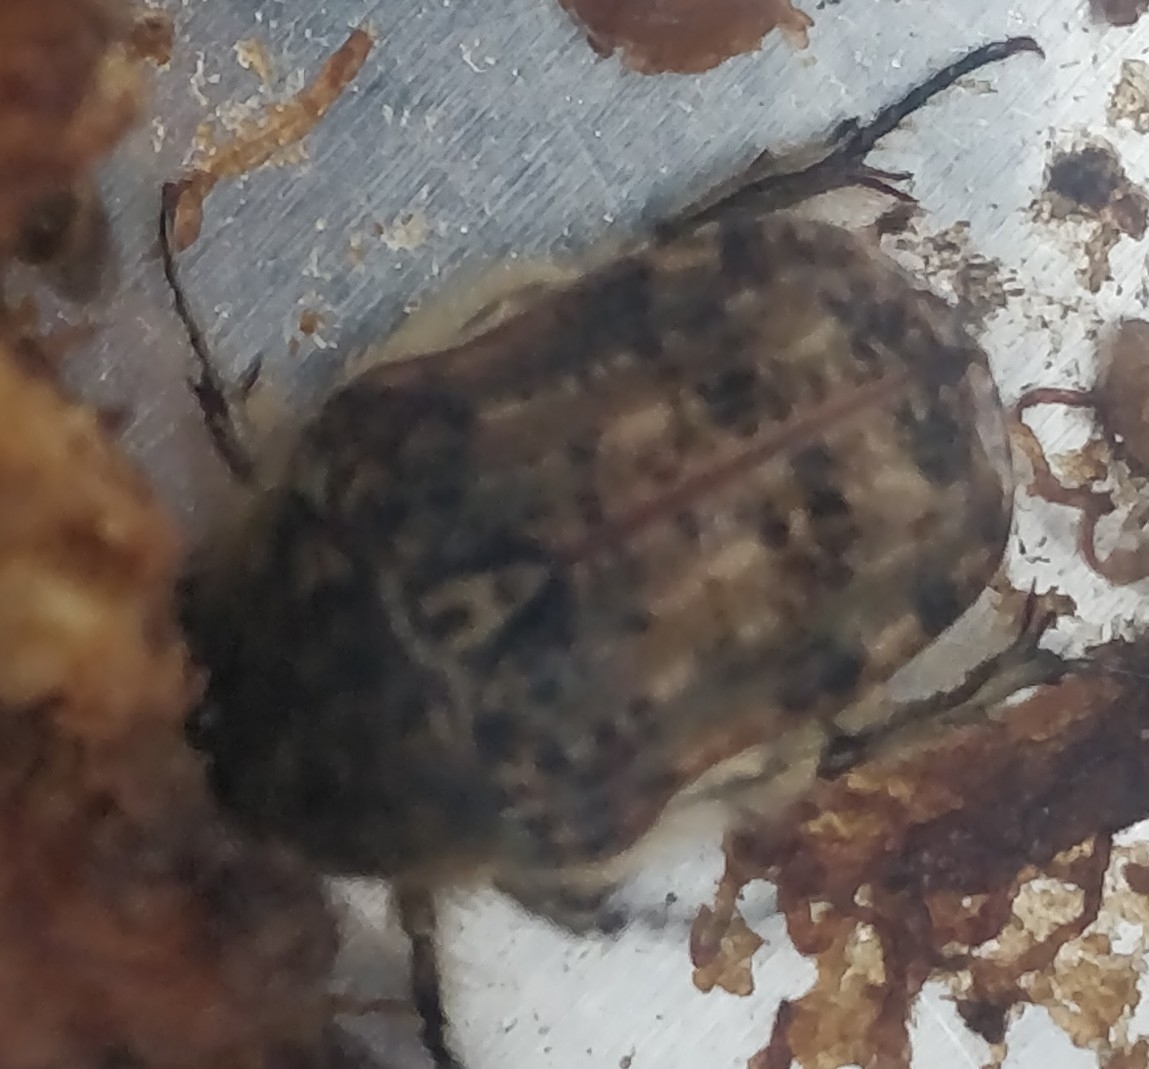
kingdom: Animalia
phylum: Arthropoda
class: Insecta
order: Coleoptera
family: Scarabaeidae
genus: Euphoria
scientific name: Euphoria inda
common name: Bumble flower beetle
